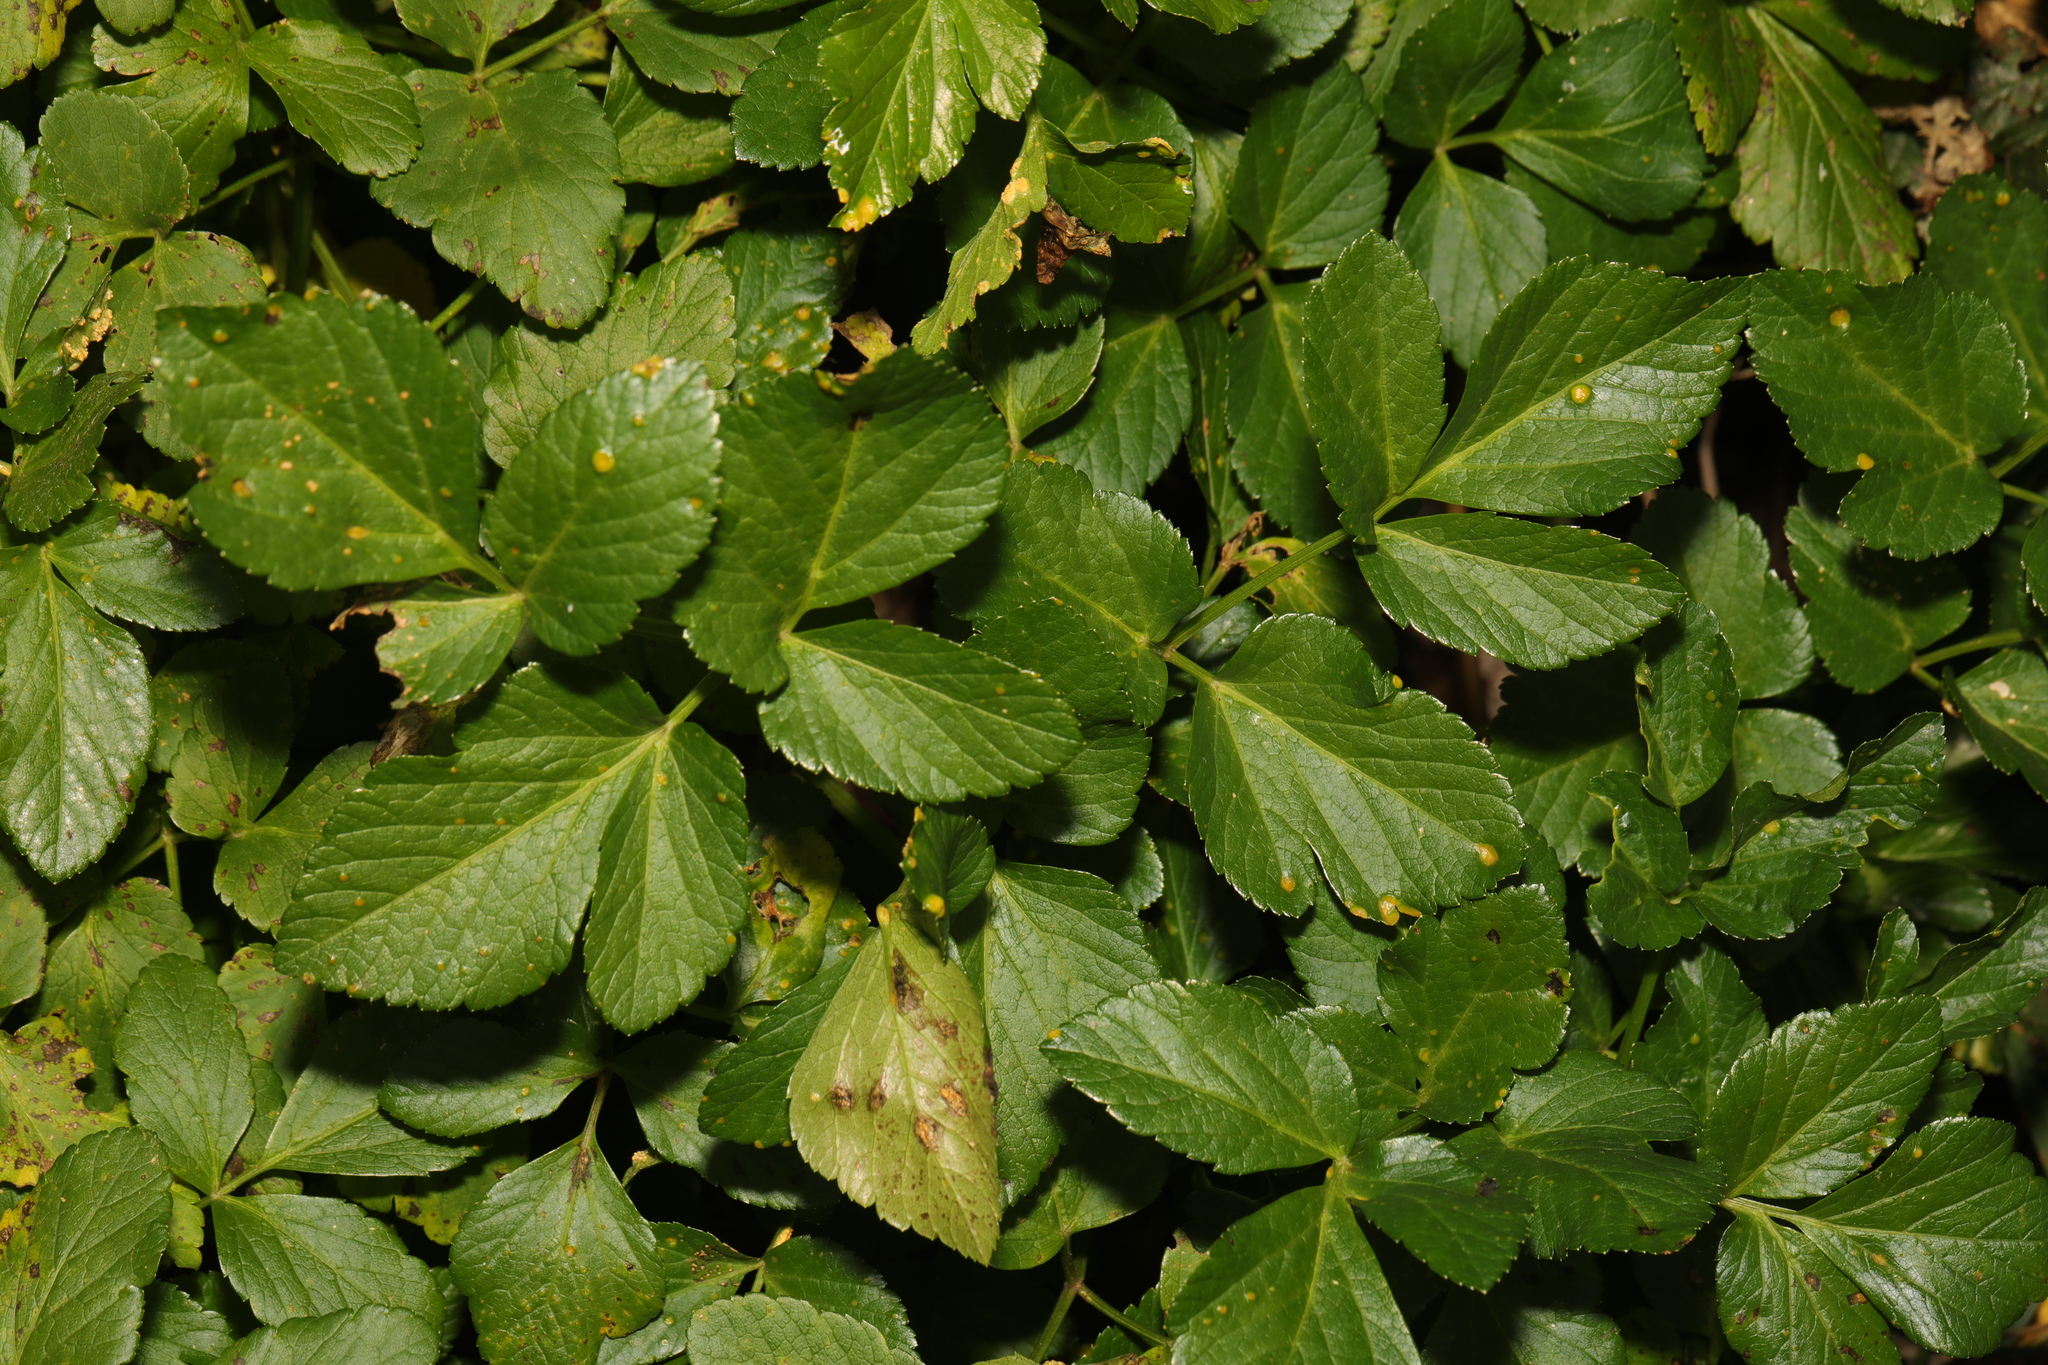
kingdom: Plantae
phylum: Tracheophyta
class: Magnoliopsida
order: Apiales
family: Apiaceae
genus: Smyrnium
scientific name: Smyrnium olusatrum
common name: Alexanders
